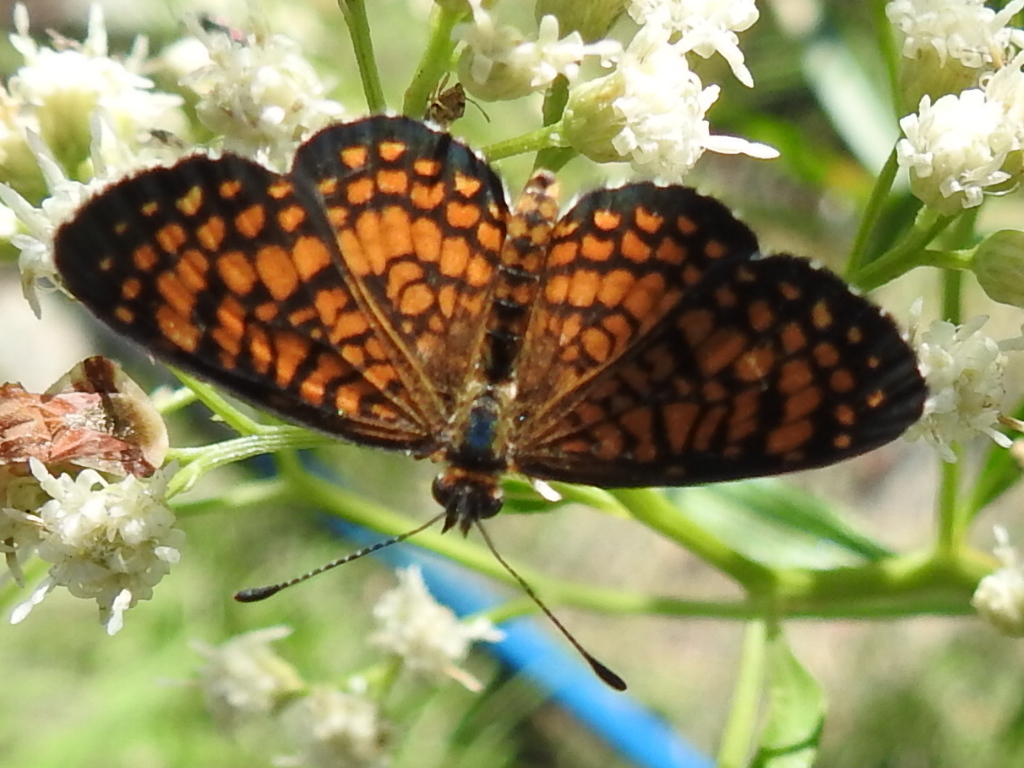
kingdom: Animalia
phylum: Arthropoda
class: Insecta
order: Lepidoptera
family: Nymphalidae
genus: Texola
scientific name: Texola
